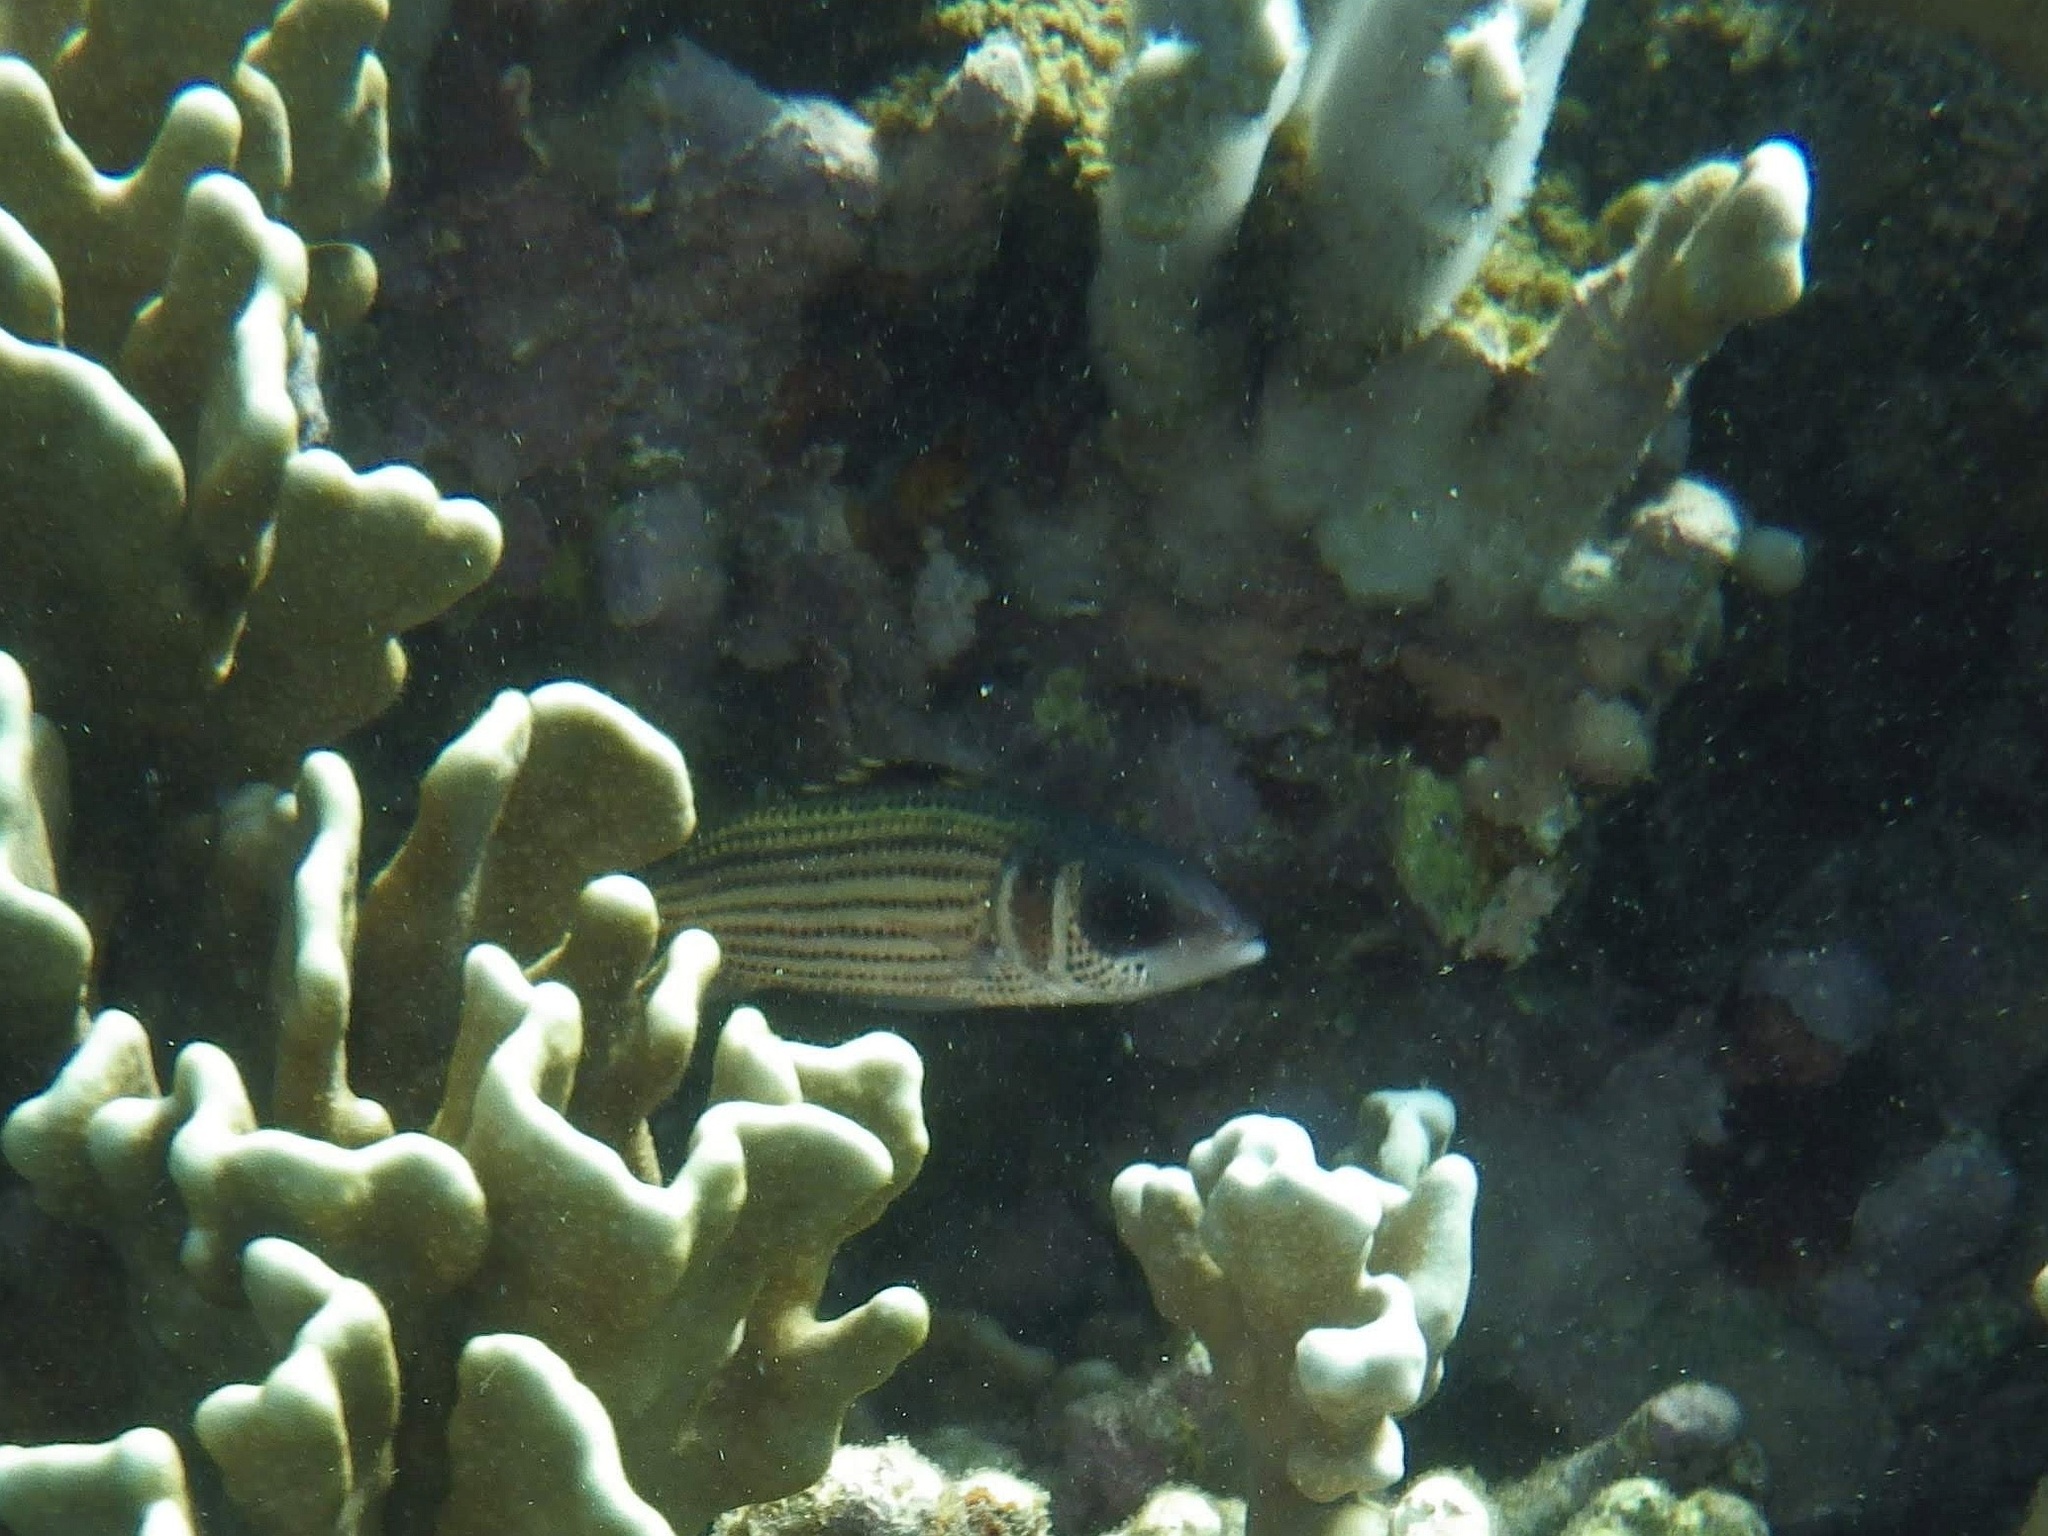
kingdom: Animalia
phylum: Chordata
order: Beryciformes
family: Holocentridae
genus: Neoniphon
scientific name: Neoniphon sammara
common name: Sammara squirrelfish
